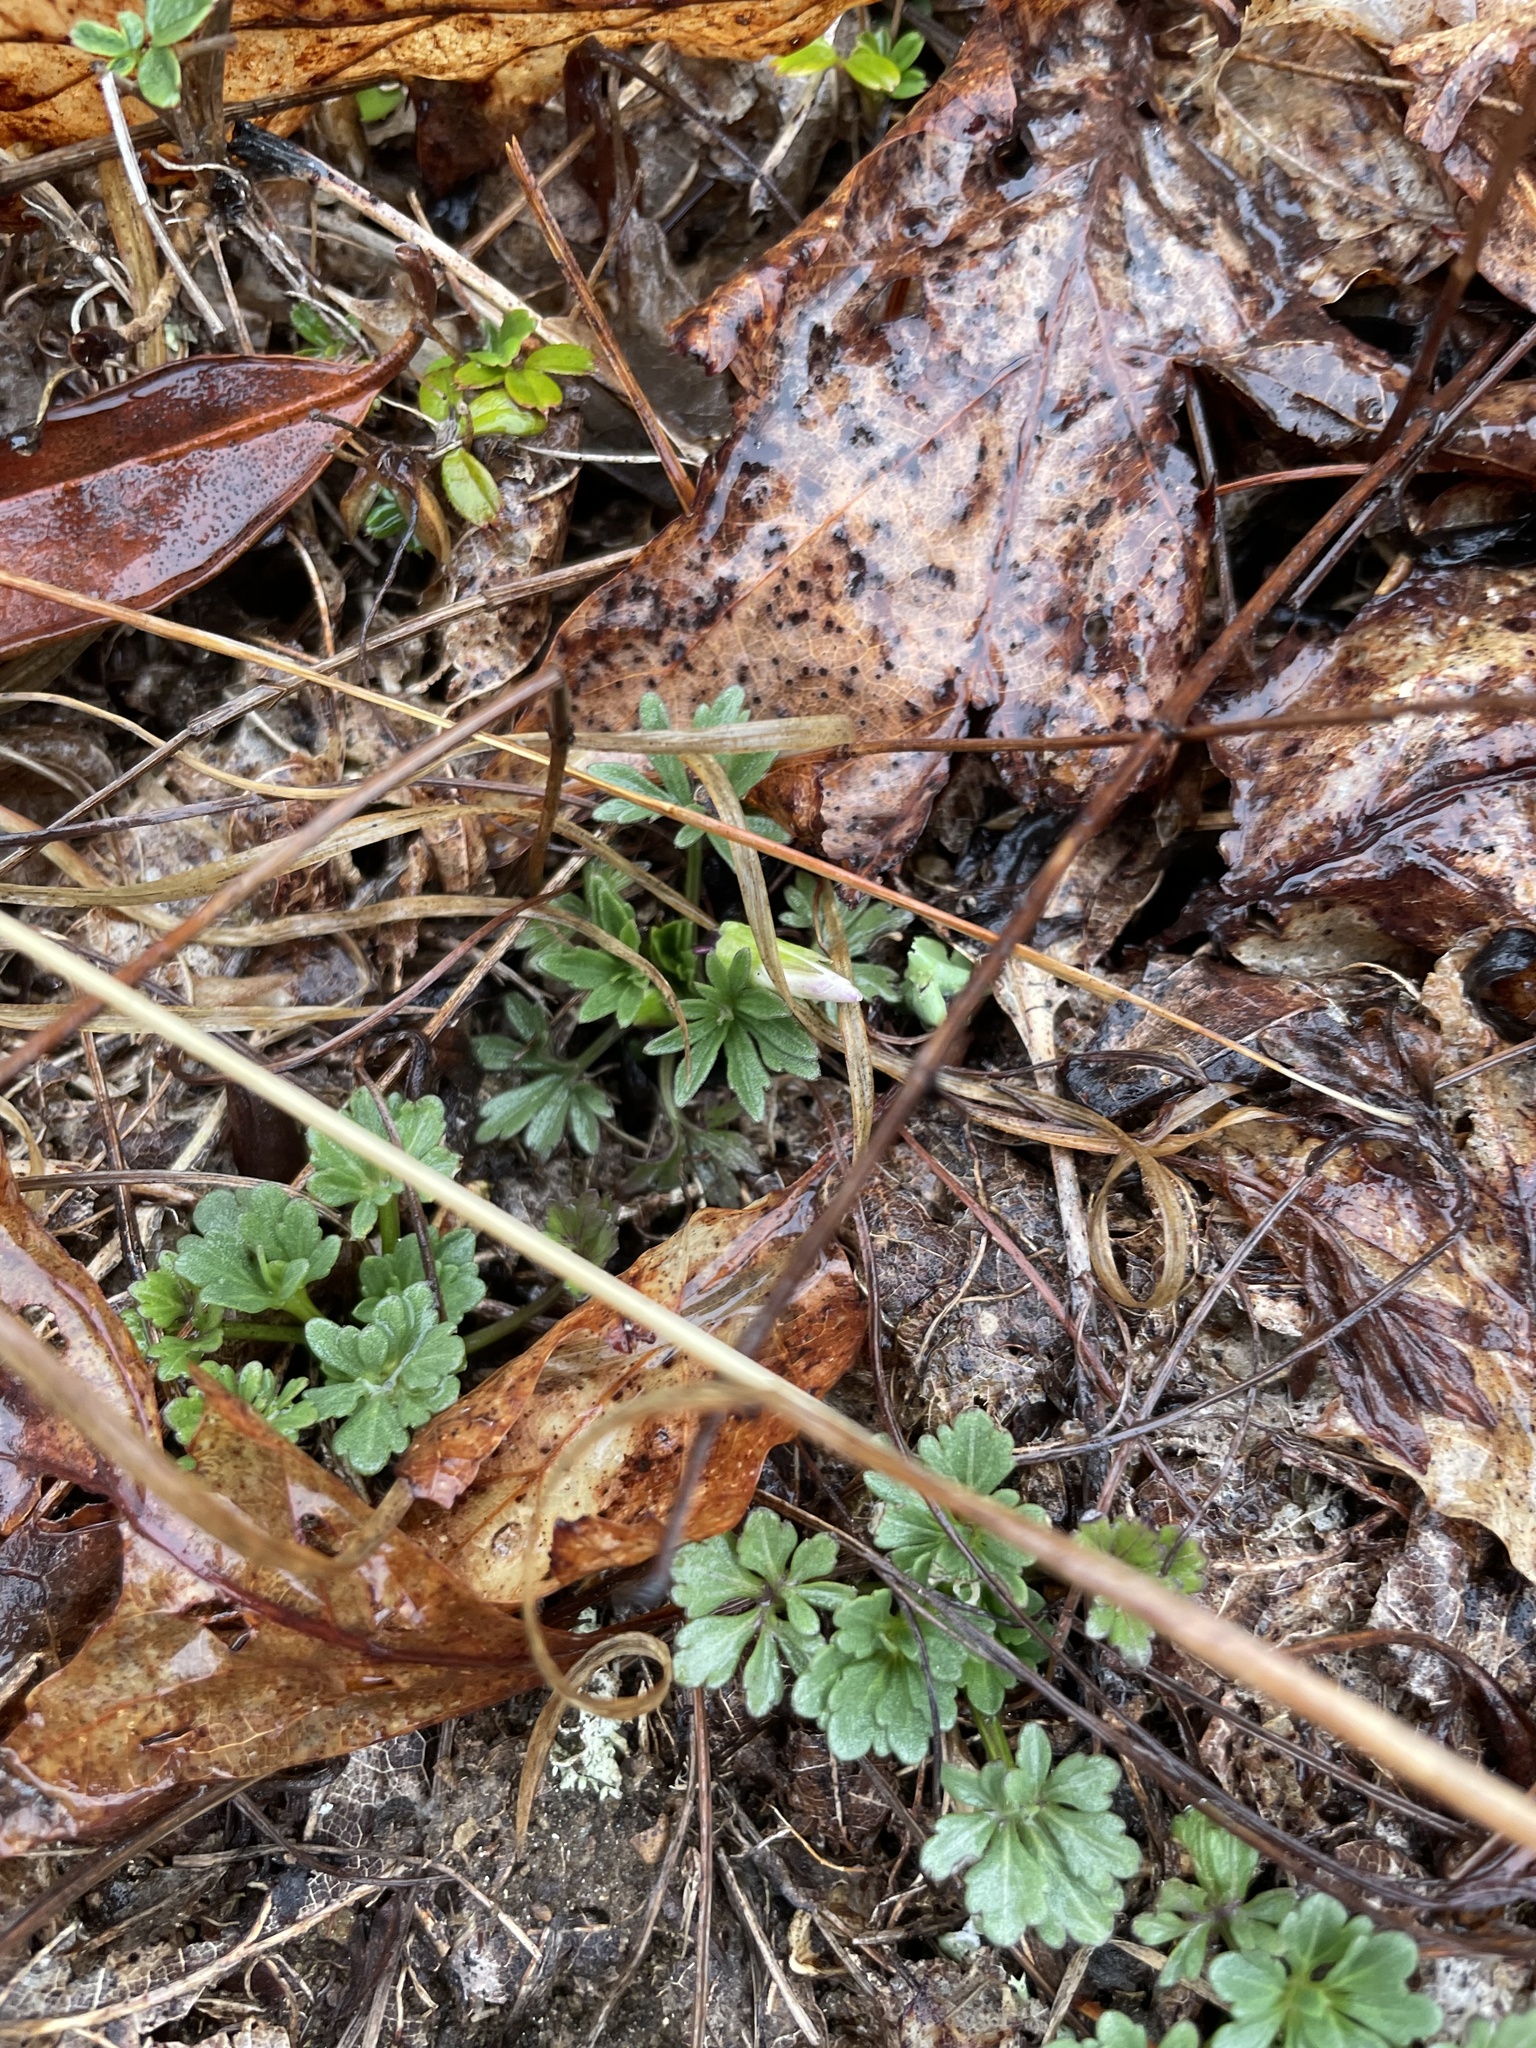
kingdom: Plantae
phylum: Tracheophyta
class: Magnoliopsida
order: Malpighiales
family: Violaceae
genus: Viola
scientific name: Viola pedata
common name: Pansy violet
